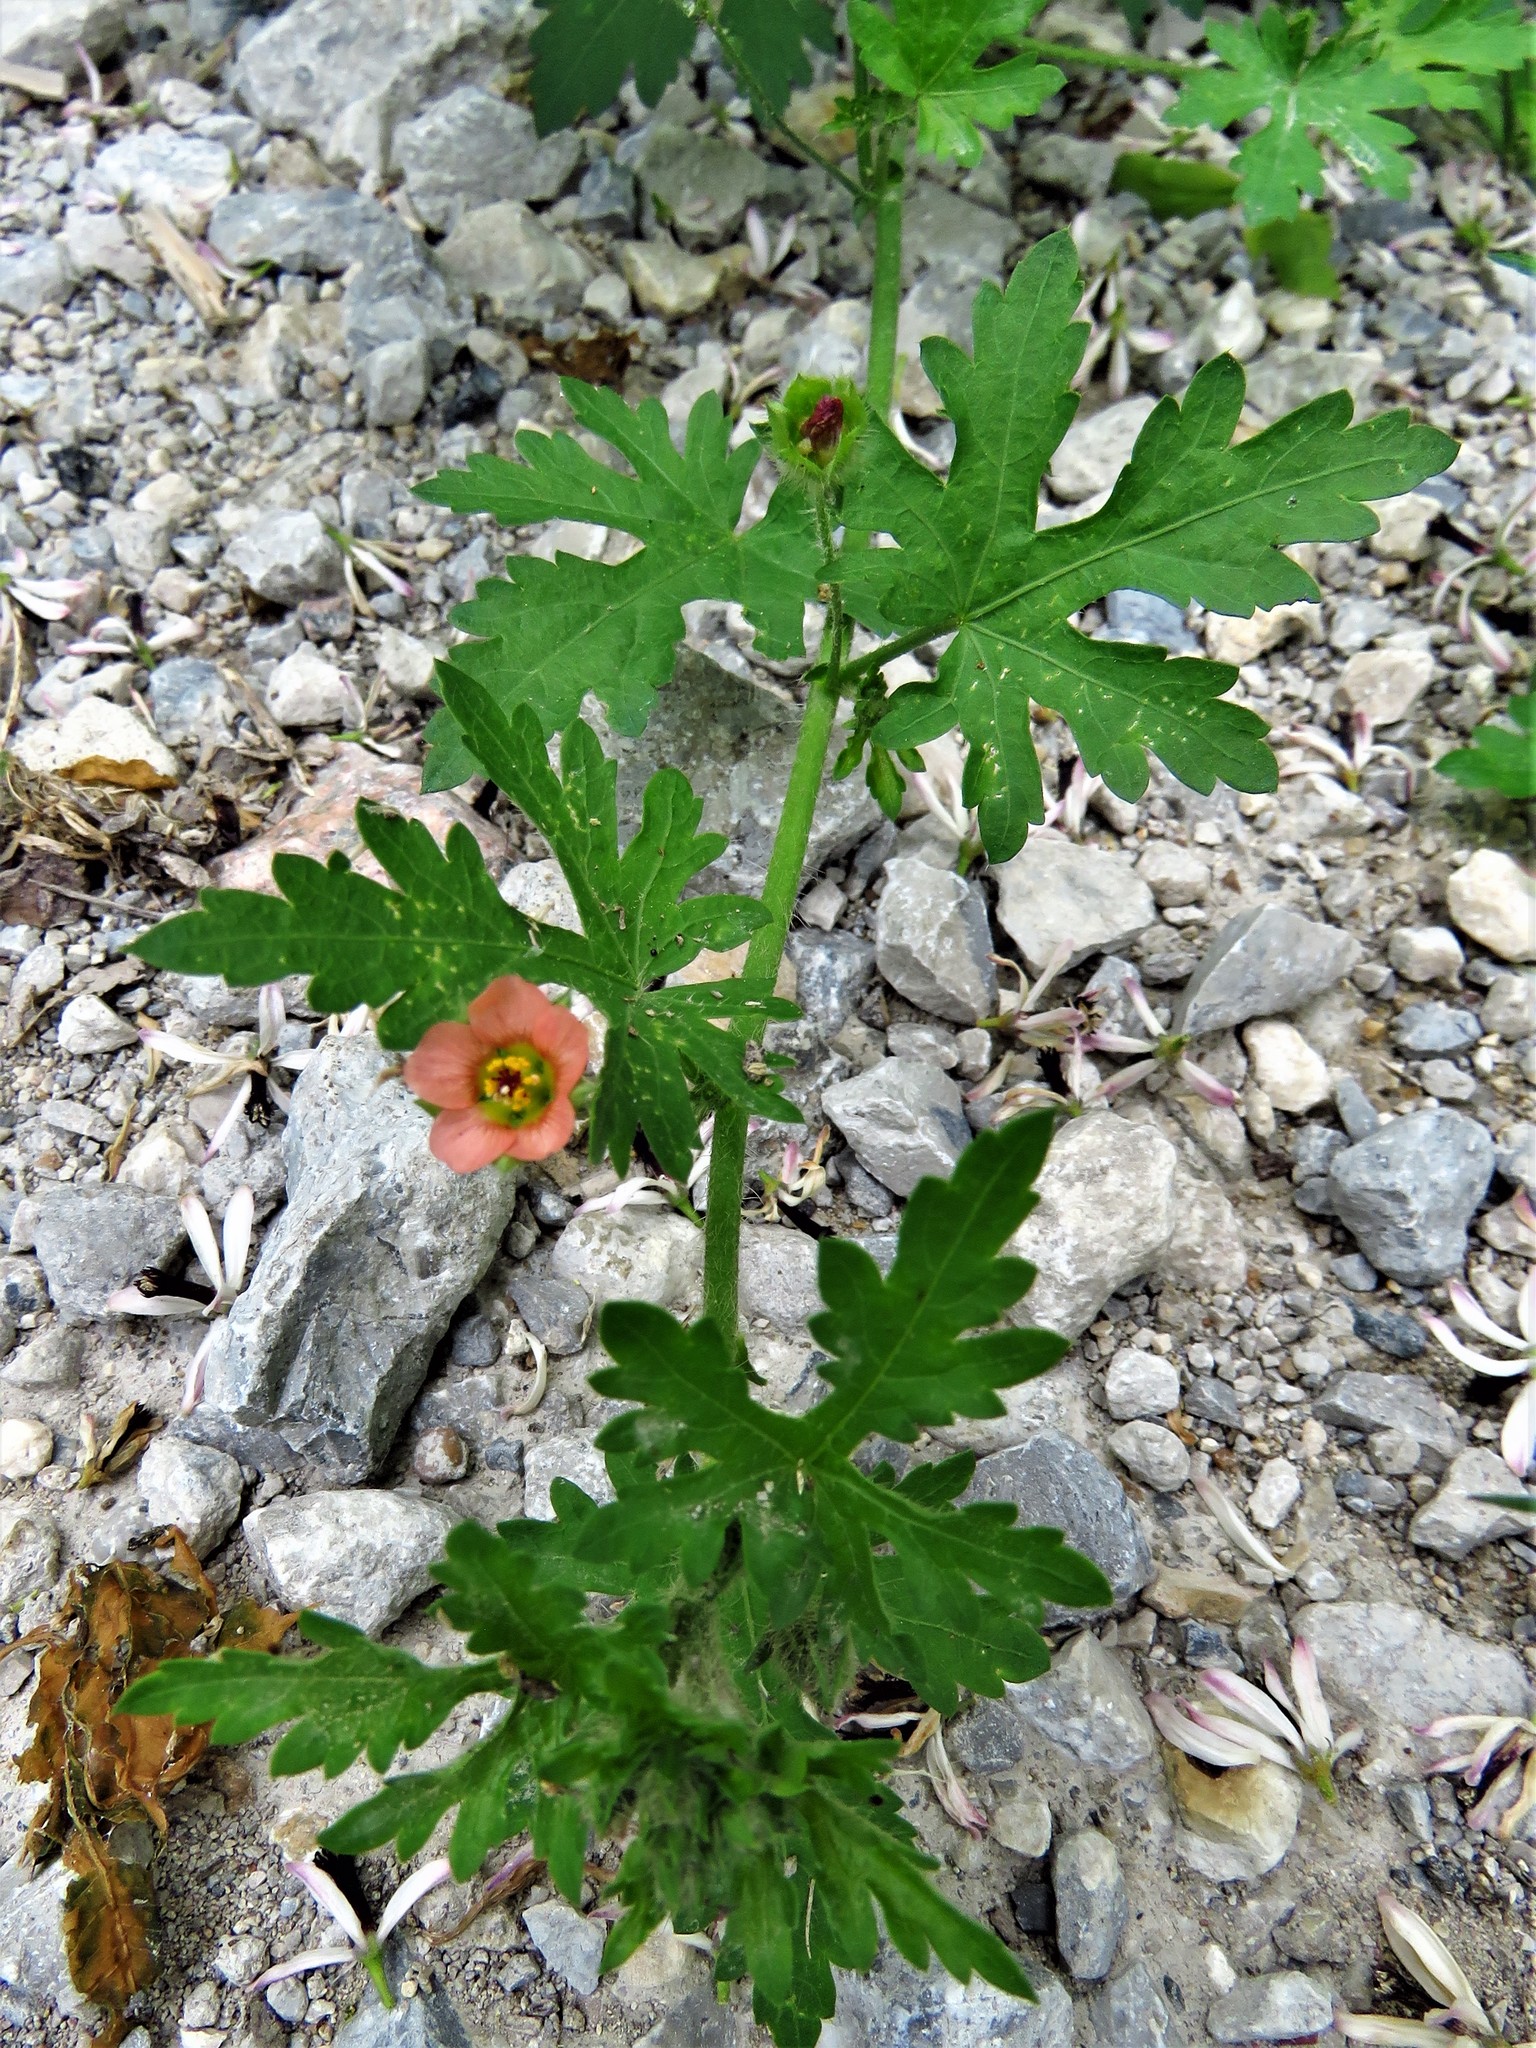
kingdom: Plantae
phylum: Tracheophyta
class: Magnoliopsida
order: Malvales
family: Malvaceae
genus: Modiola
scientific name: Modiola caroliniana
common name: Carolina bristlemallow
